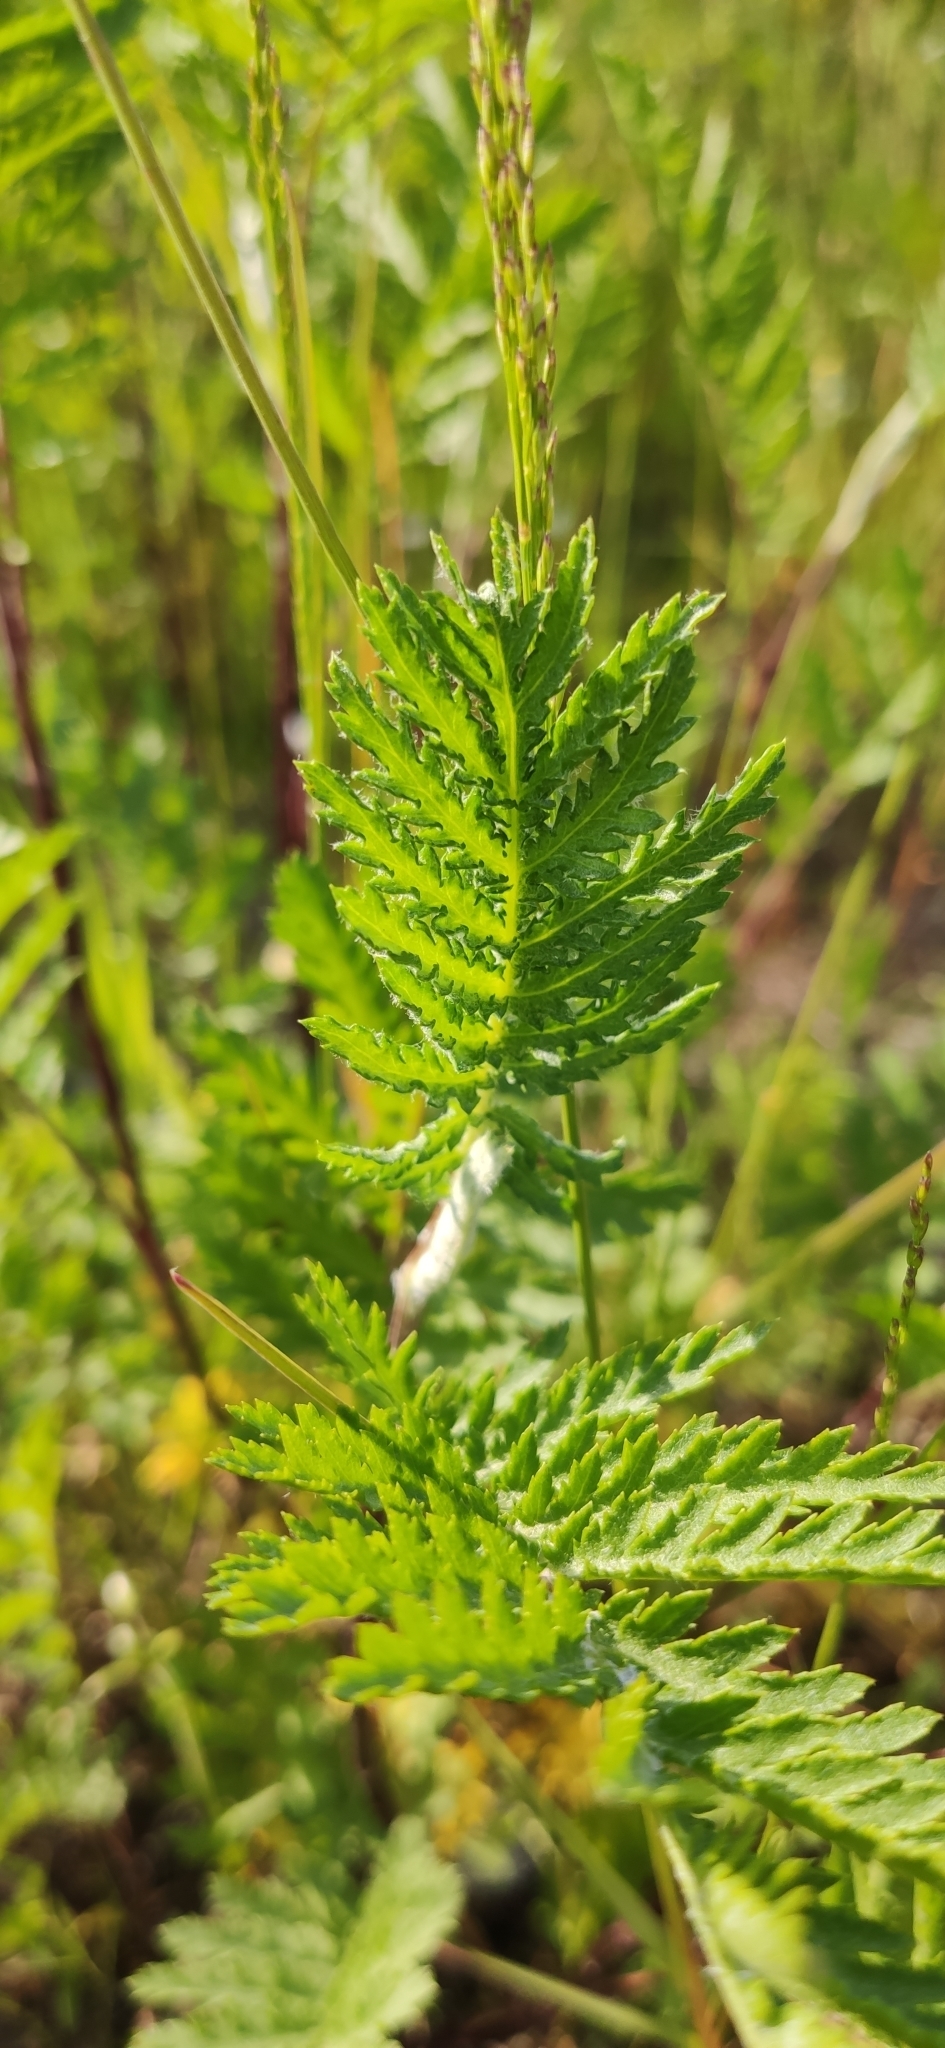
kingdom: Plantae
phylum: Tracheophyta
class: Magnoliopsida
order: Asterales
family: Asteraceae
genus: Tanacetum
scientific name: Tanacetum vulgare
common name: Common tansy
